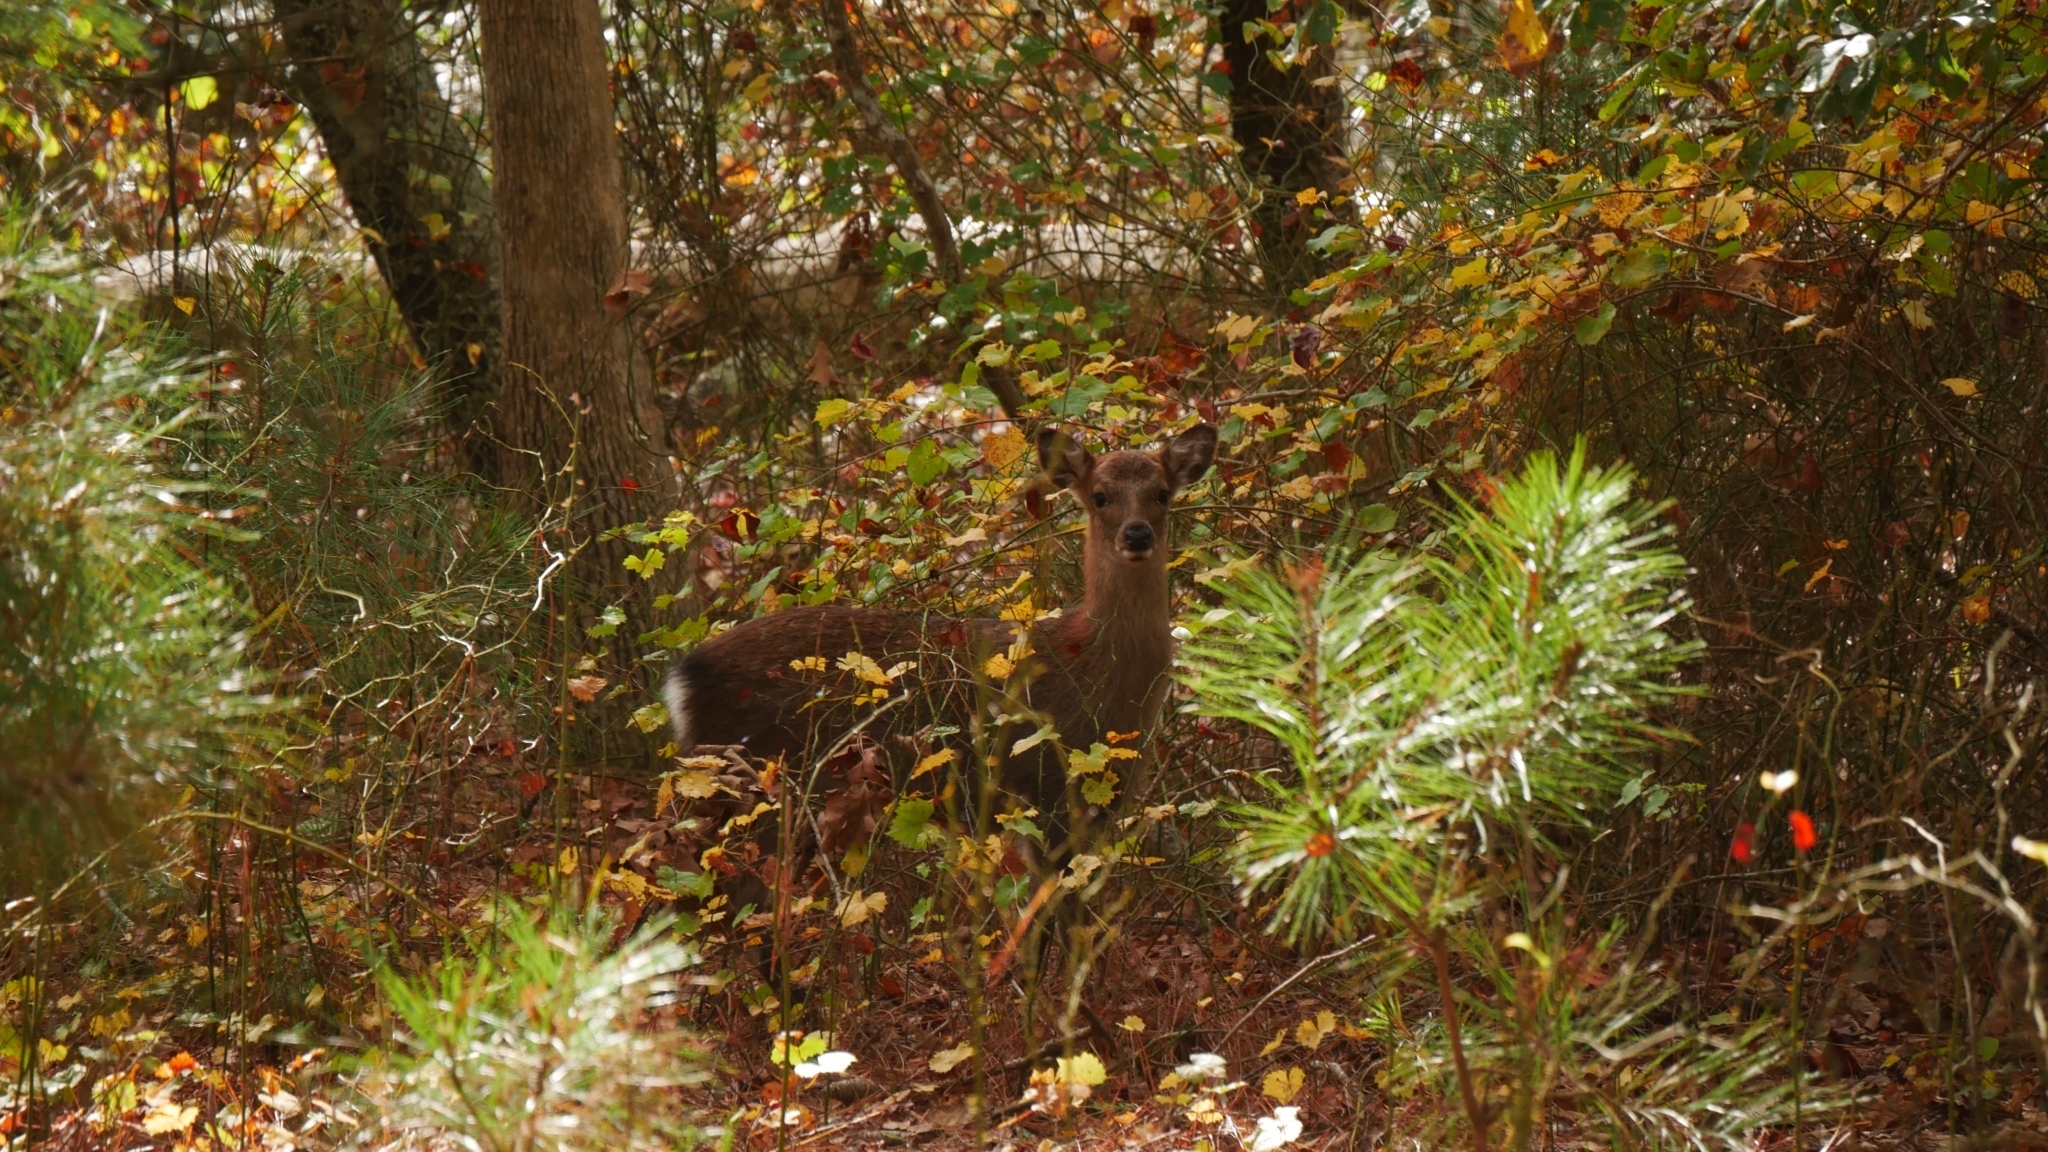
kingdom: Animalia
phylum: Chordata
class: Mammalia
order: Artiodactyla
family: Cervidae
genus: Cervus
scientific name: Cervus nippon
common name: Sika deer
